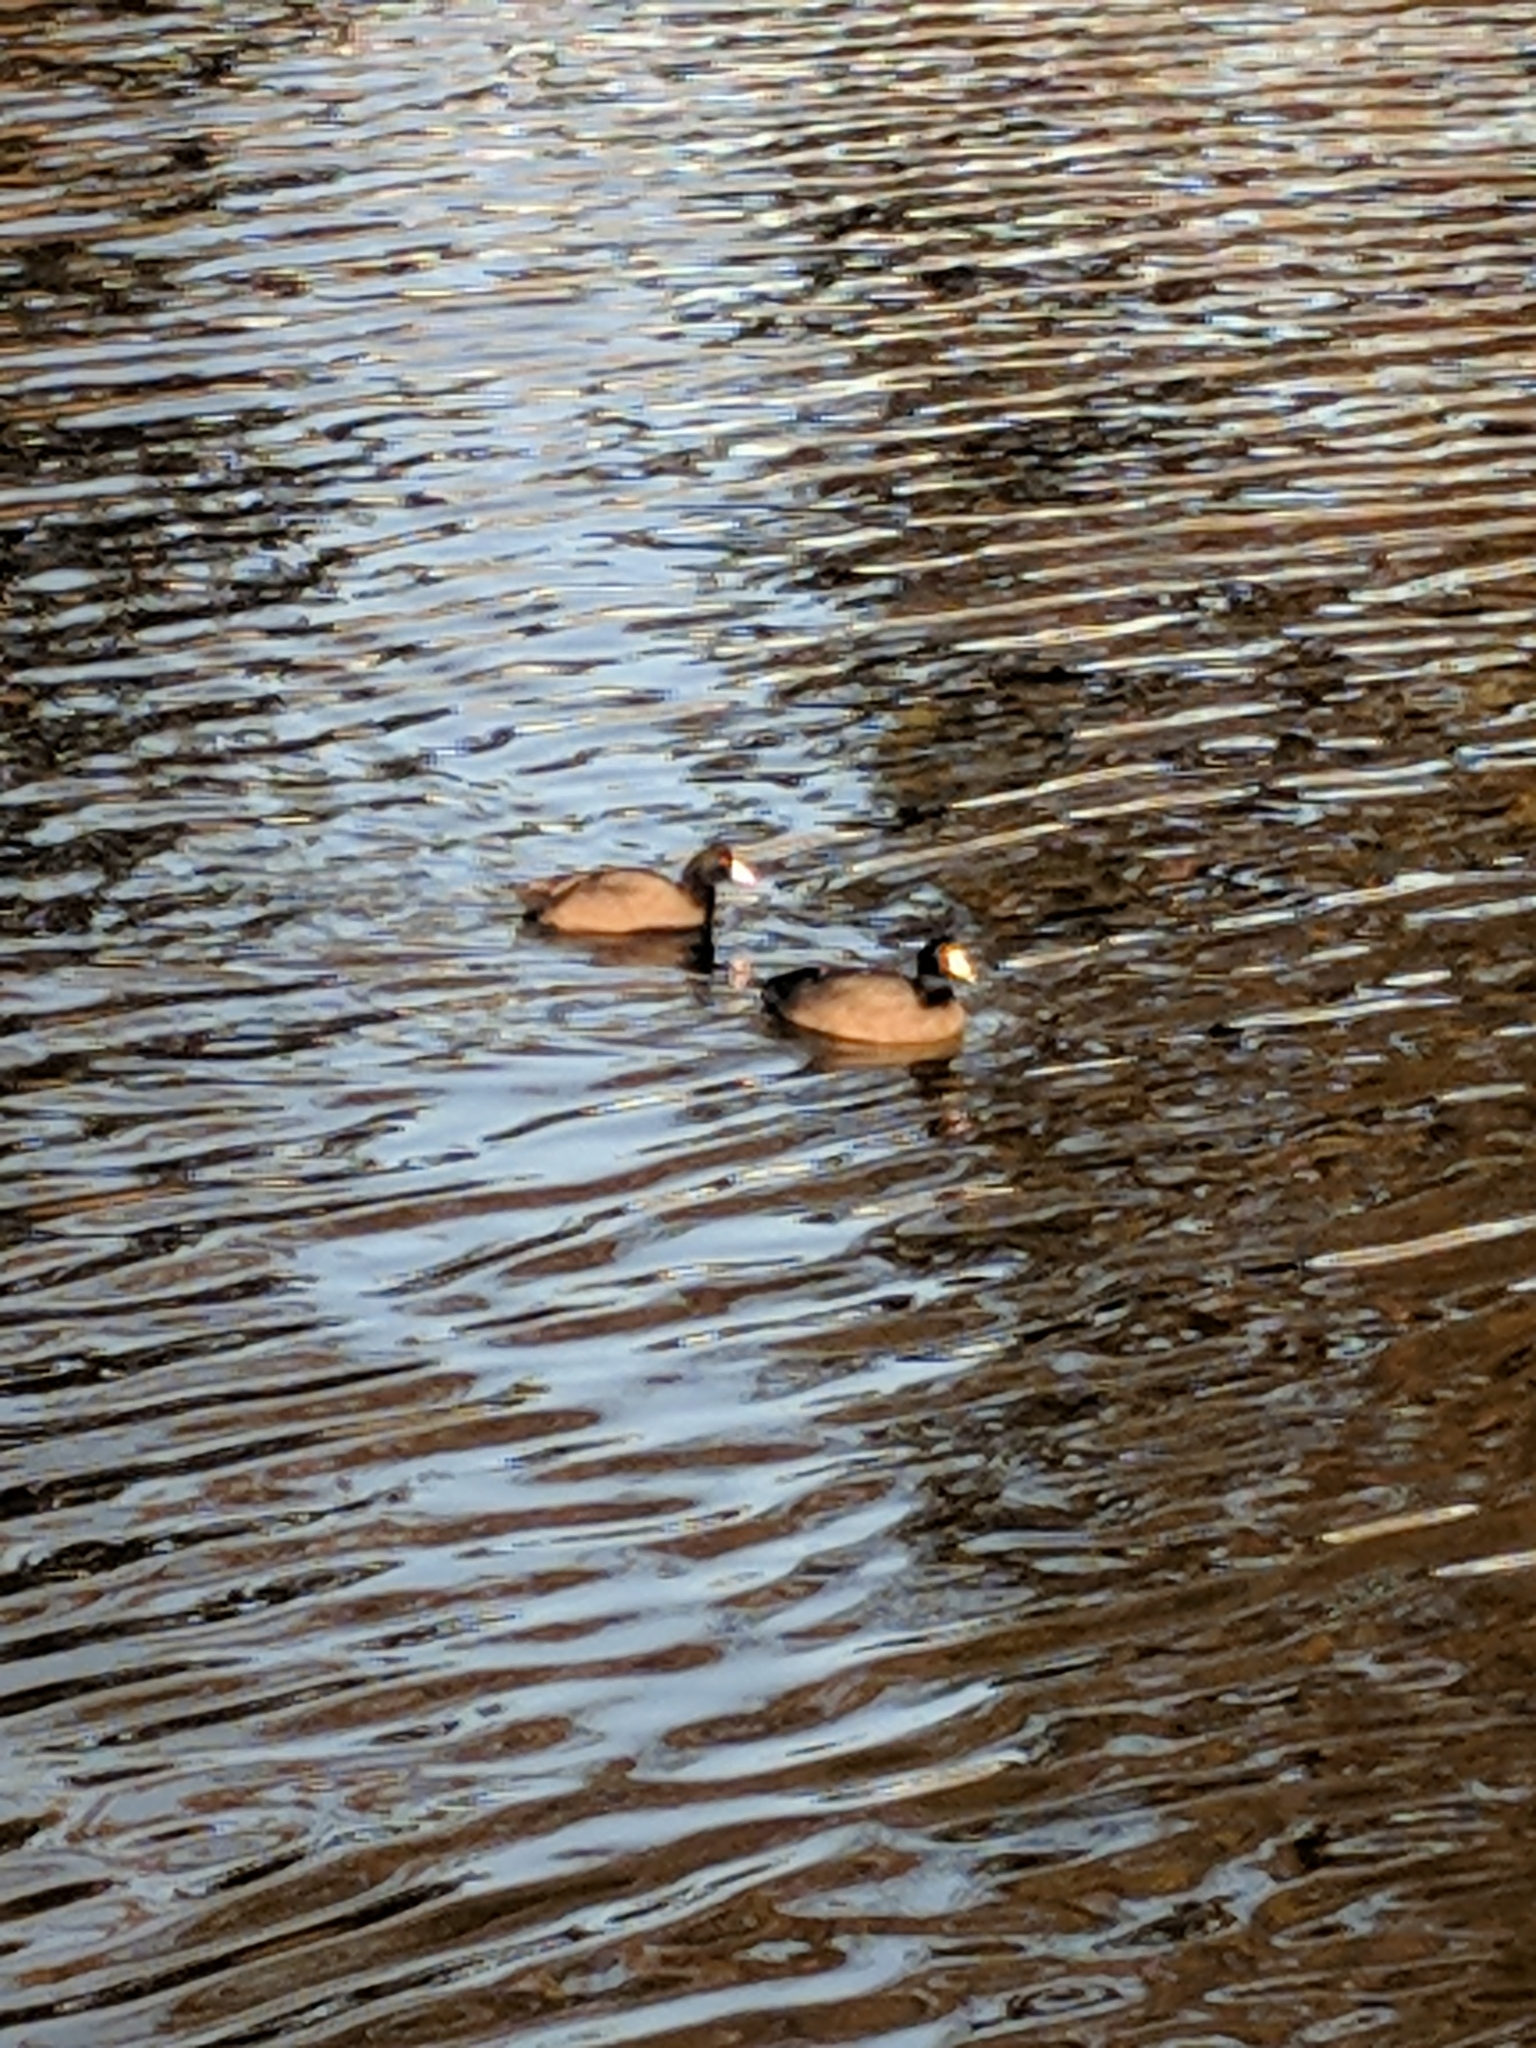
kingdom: Animalia
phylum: Chordata
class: Aves
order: Gruiformes
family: Rallidae
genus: Fulica
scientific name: Fulica americana
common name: American coot
